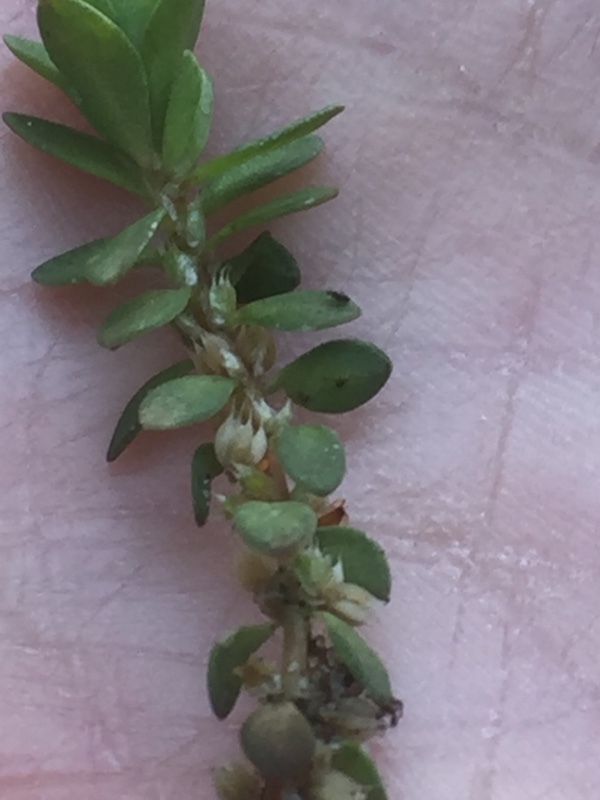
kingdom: Plantae
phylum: Tracheophyta
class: Magnoliopsida
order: Caryophyllales
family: Caryophyllaceae
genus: Illecebrum
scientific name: Illecebrum verticillatum
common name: Coral necklace
